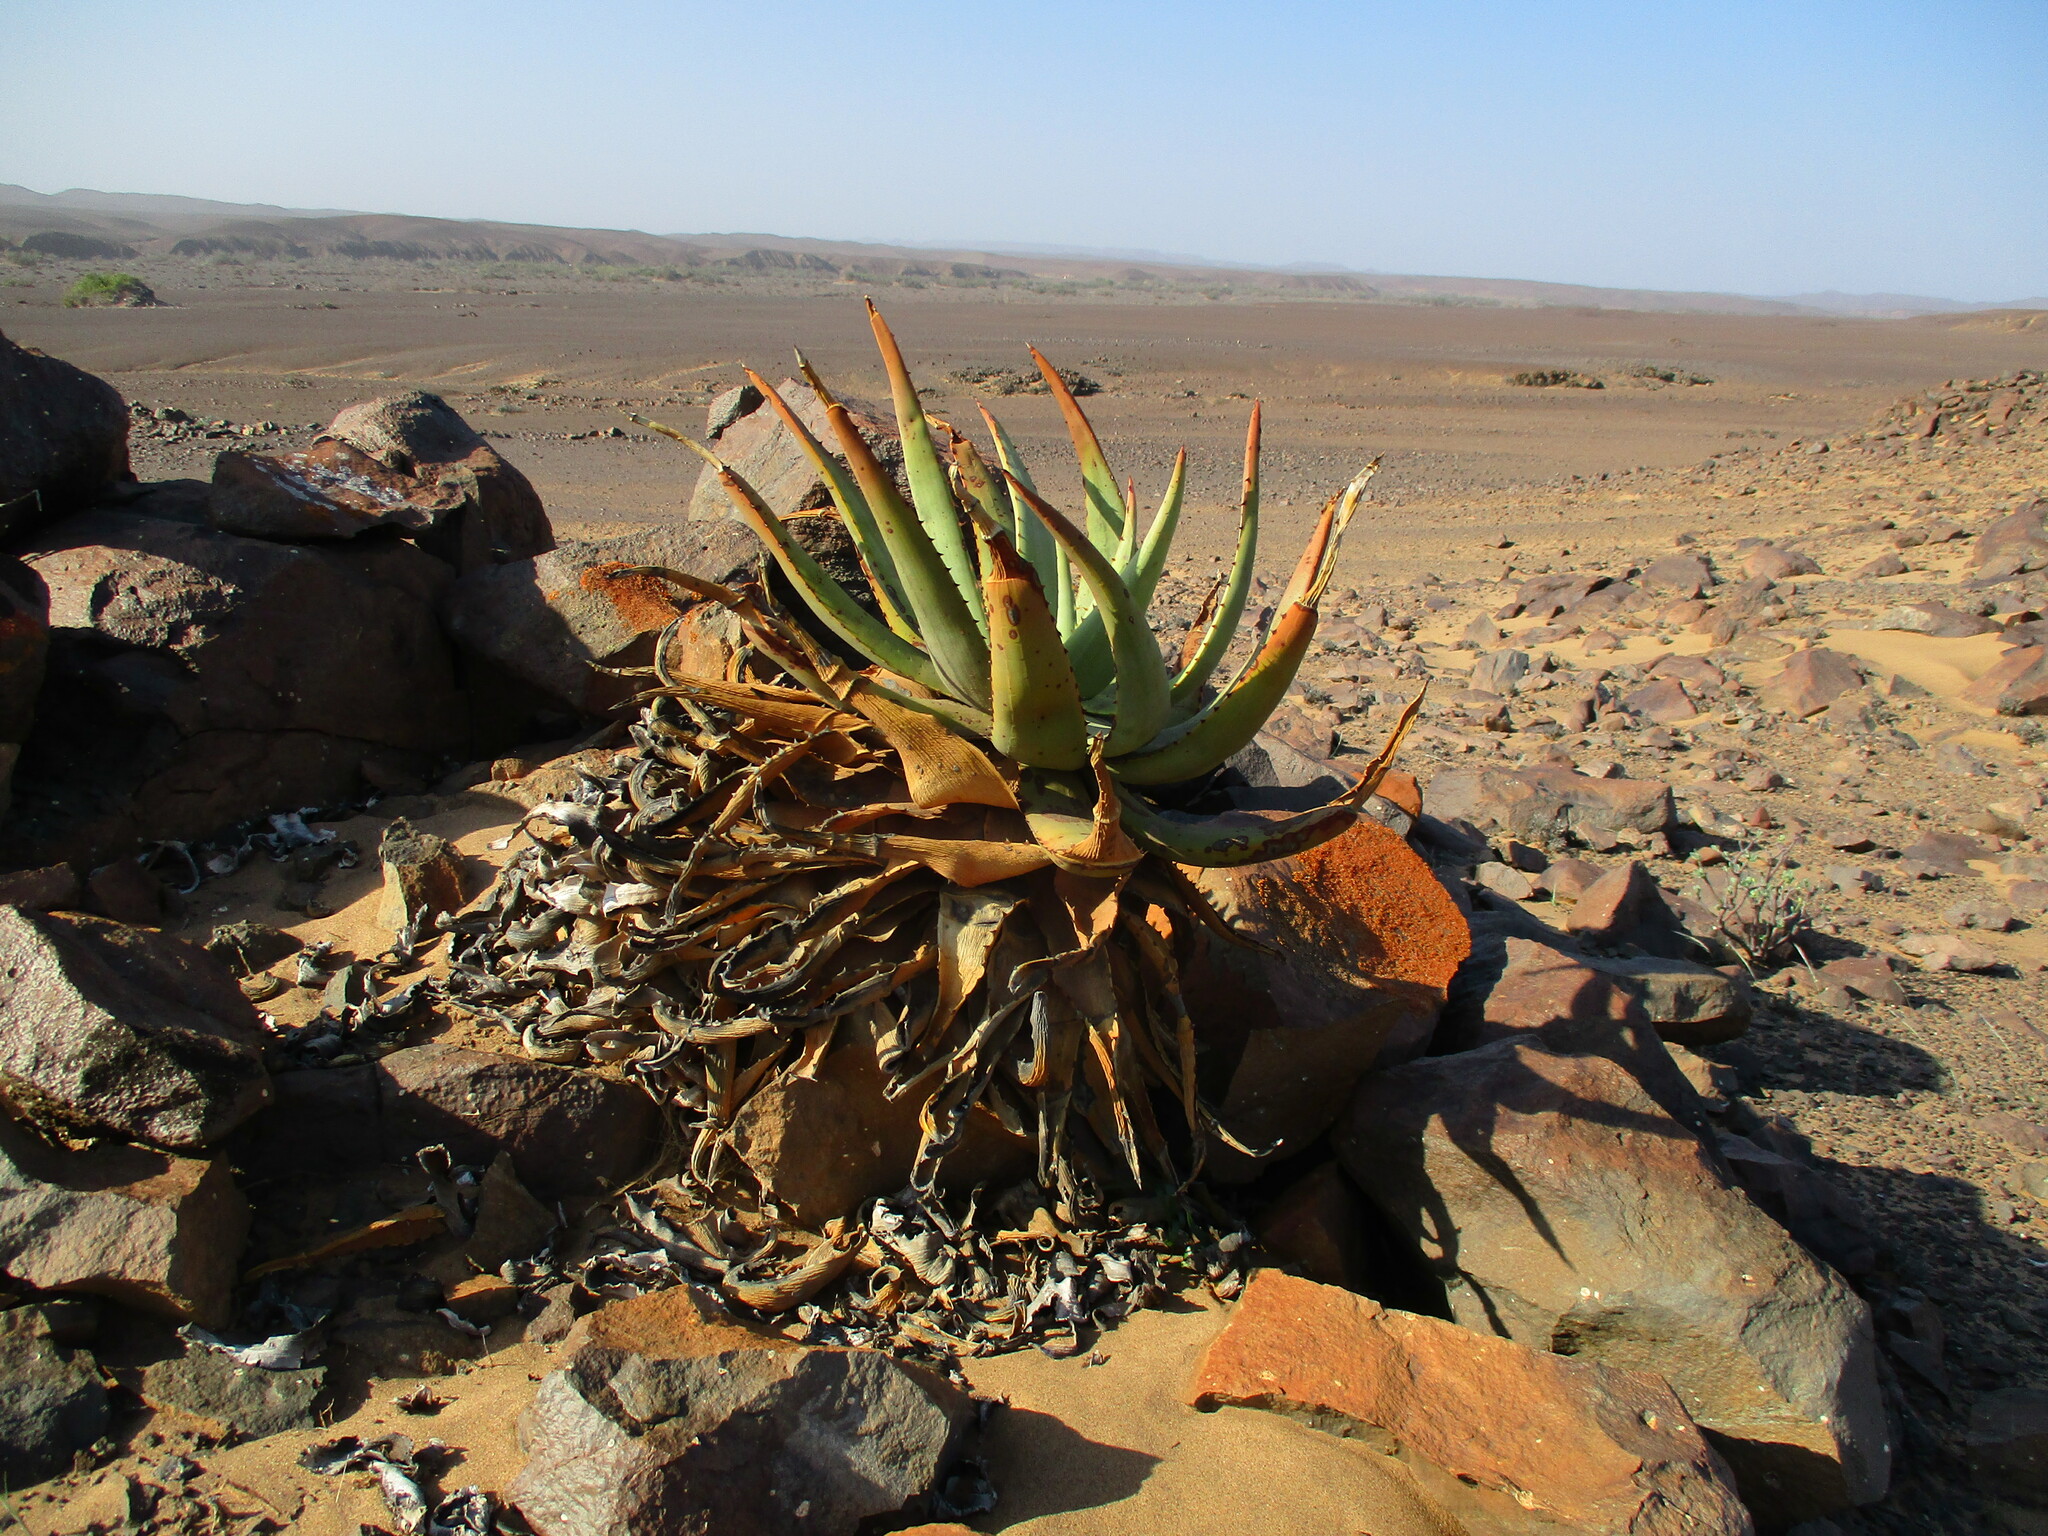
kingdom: Plantae
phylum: Tracheophyta
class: Liliopsida
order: Asparagales
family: Asphodelaceae
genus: Aloe
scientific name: Aloe asperifolia
